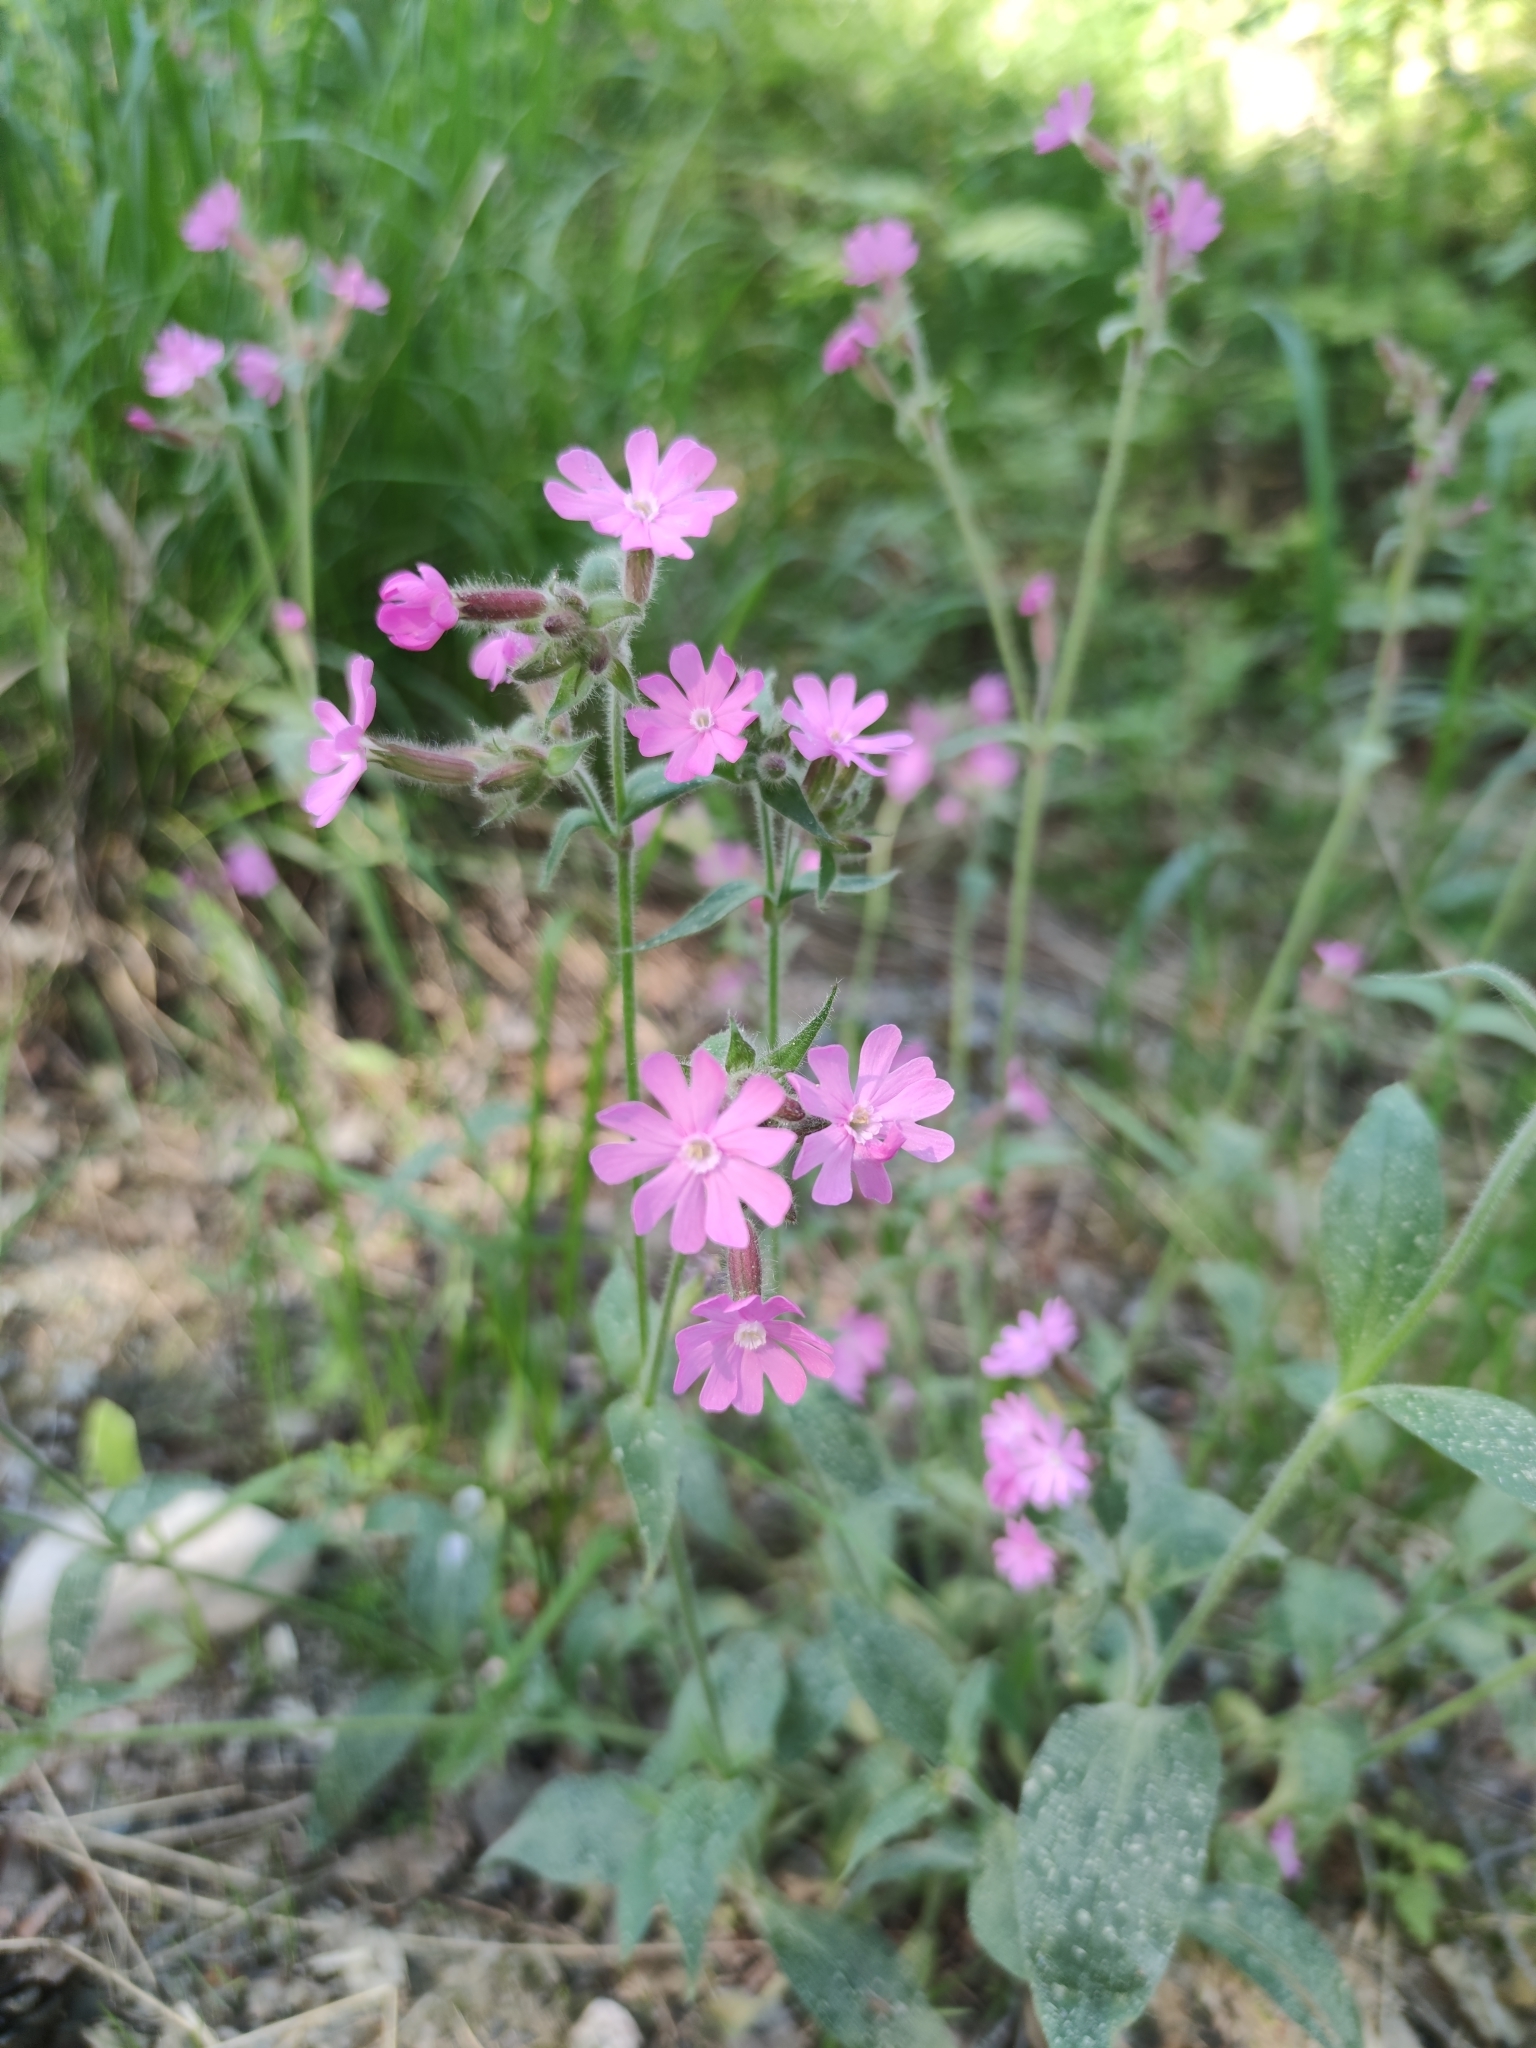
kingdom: Plantae
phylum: Tracheophyta
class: Magnoliopsida
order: Caryophyllales
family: Caryophyllaceae
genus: Silene
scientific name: Silene dioica
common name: Red campion
